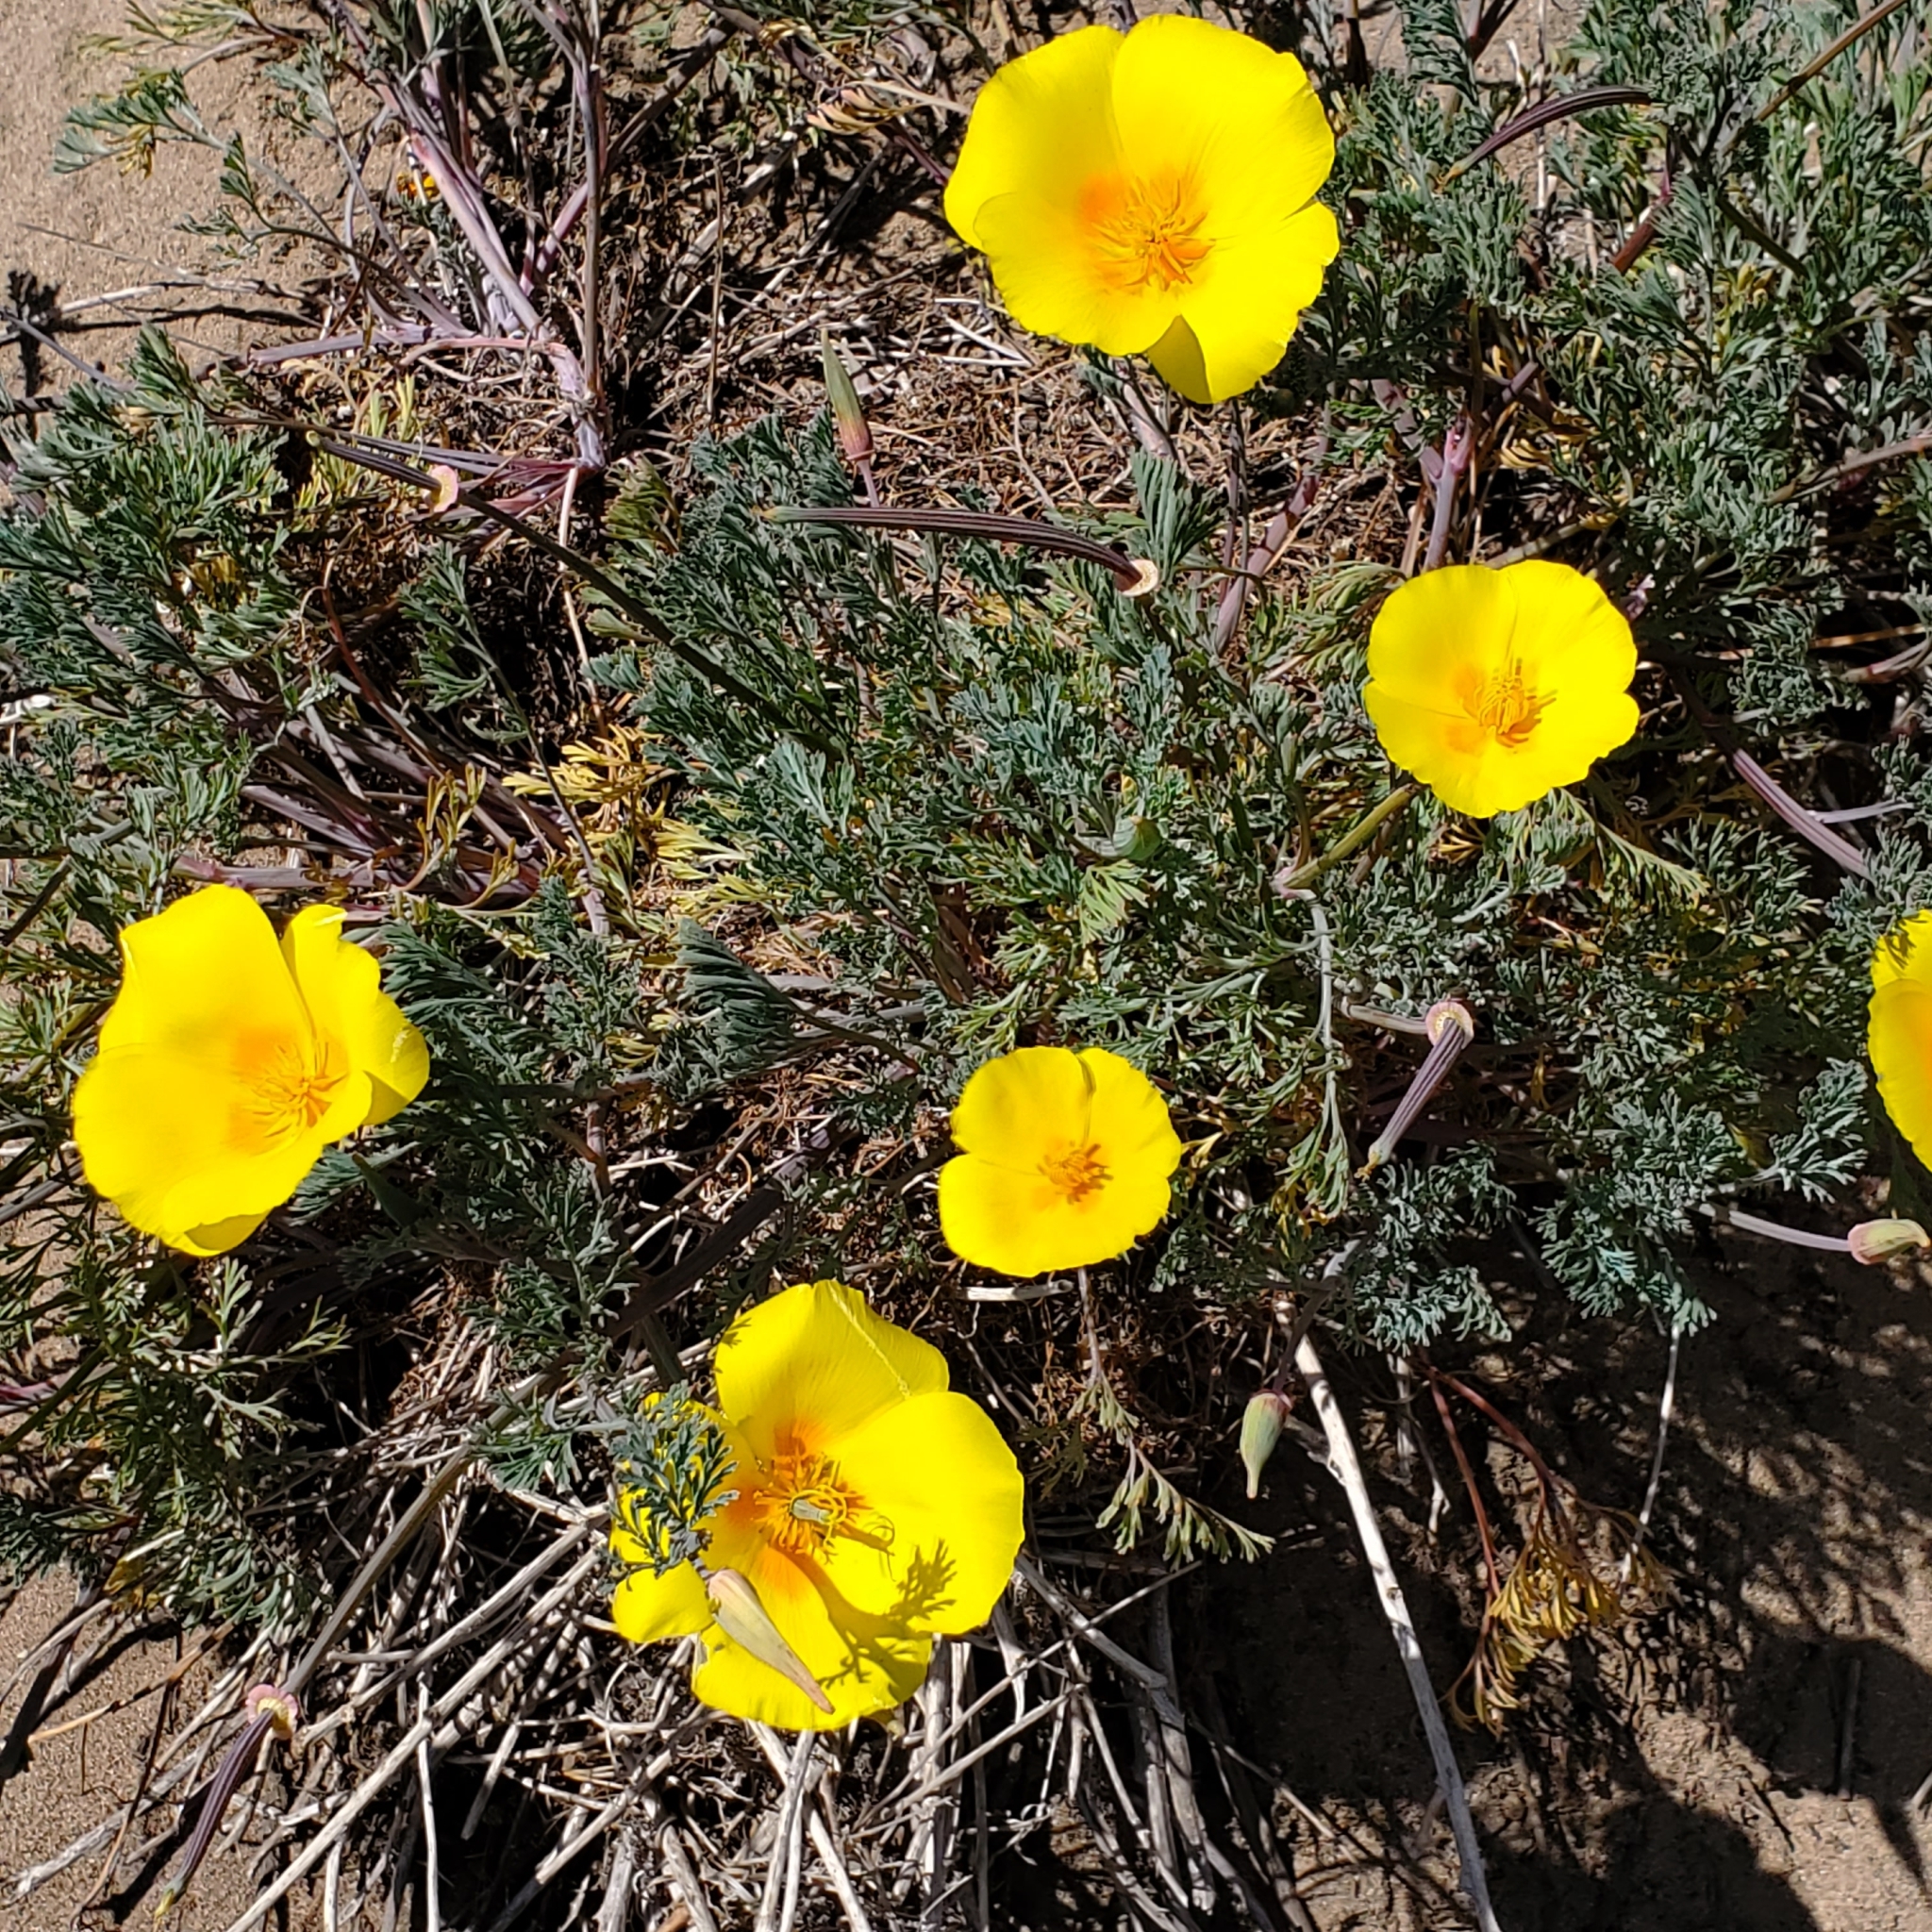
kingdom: Plantae
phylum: Tracheophyta
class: Magnoliopsida
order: Ranunculales
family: Papaveraceae
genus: Eschscholzia
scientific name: Eschscholzia californica
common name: California poppy
